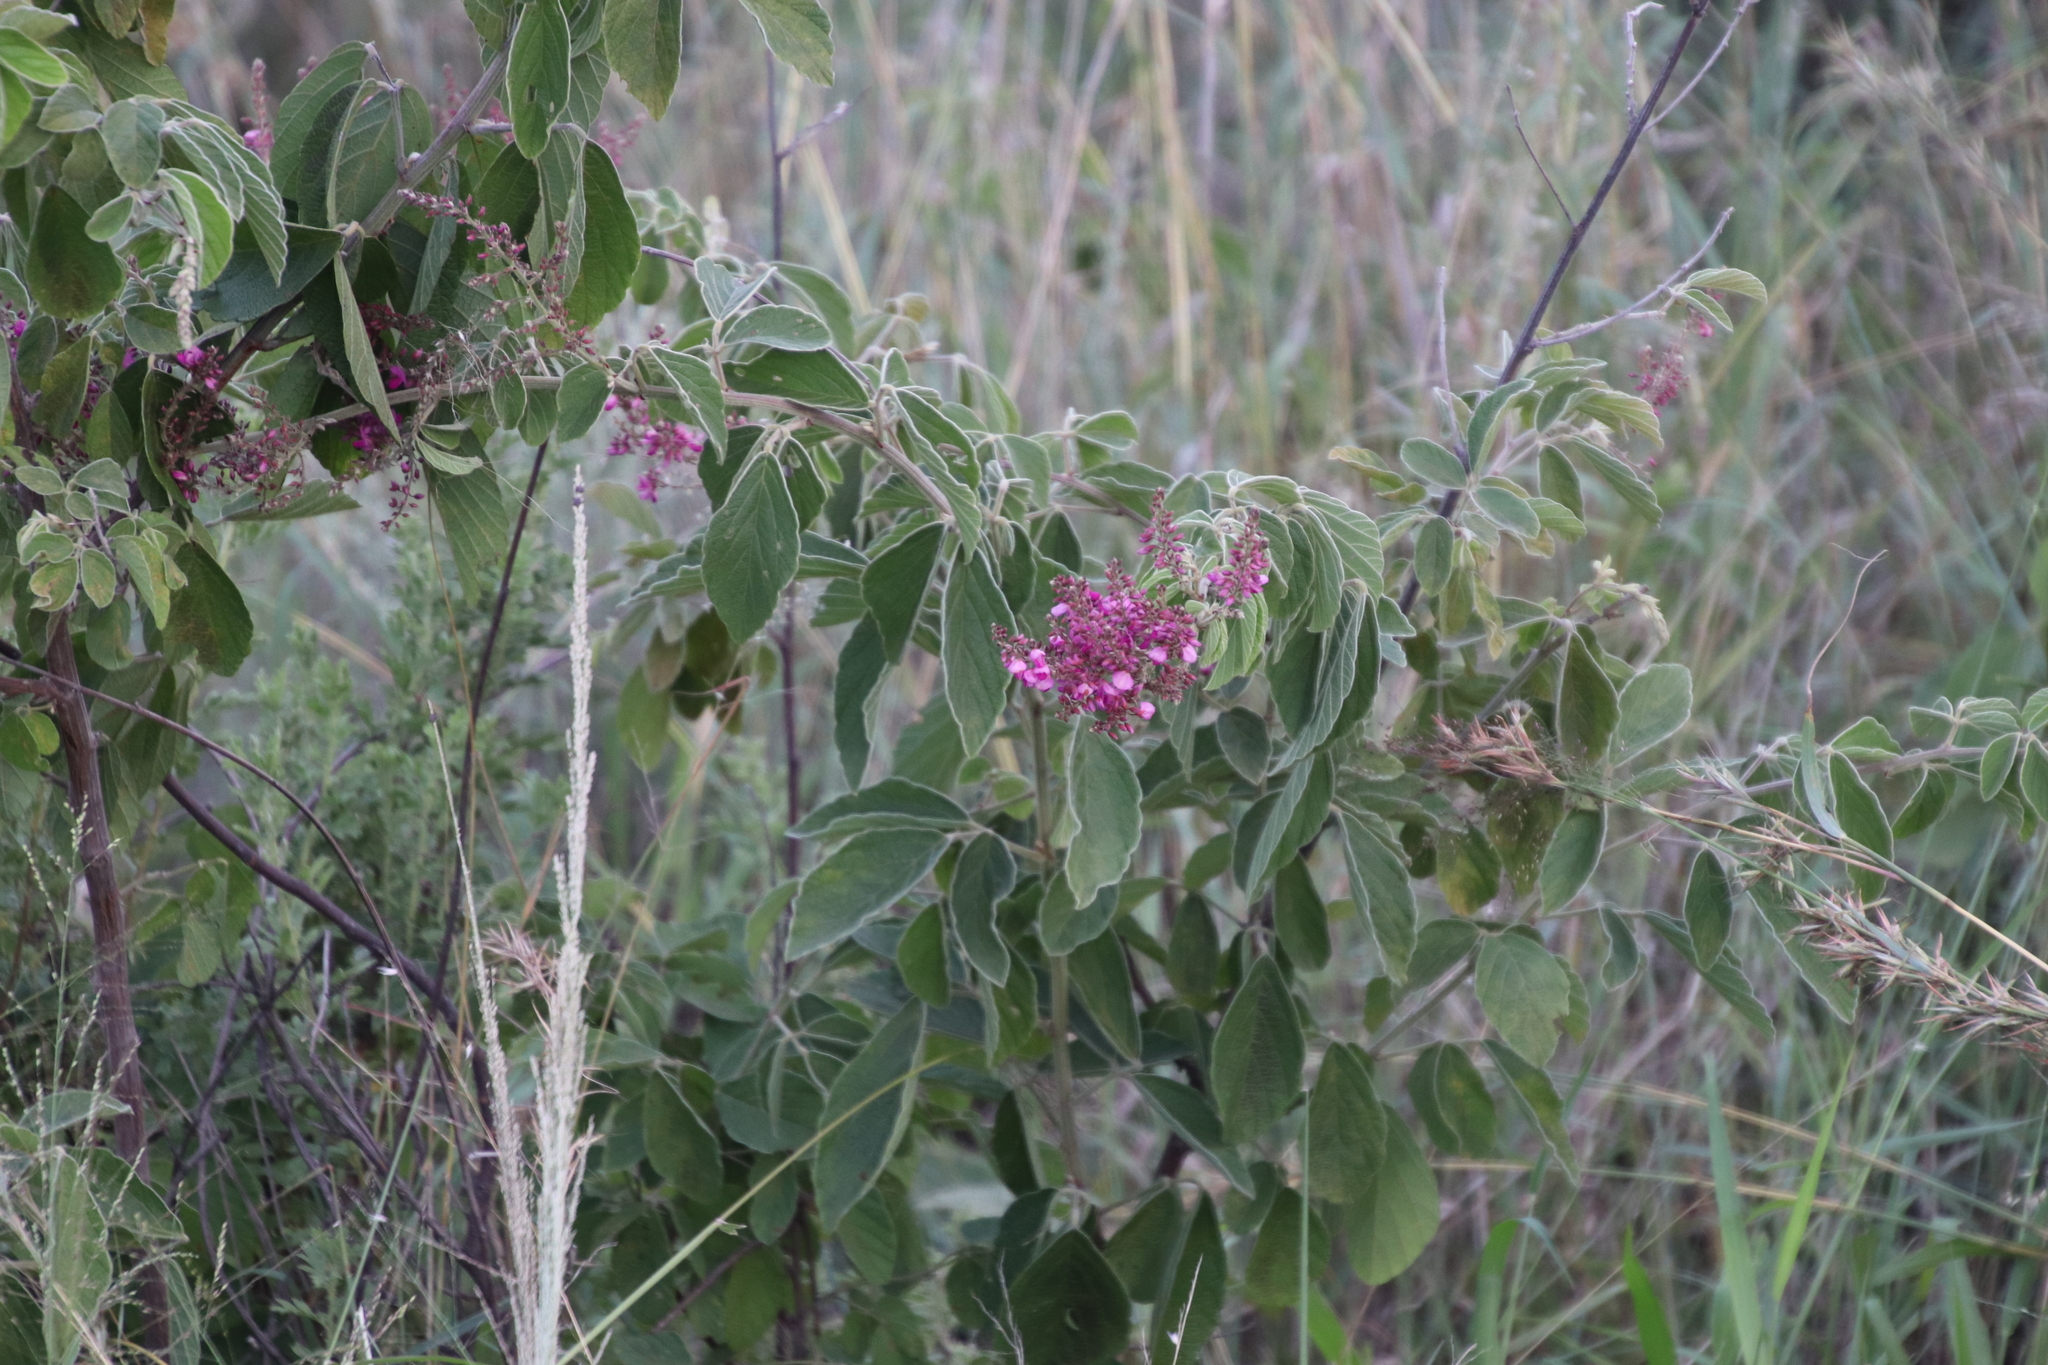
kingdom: Plantae
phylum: Tracheophyta
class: Magnoliopsida
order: Fabales
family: Fabaceae
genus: Pseudarthria
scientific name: Pseudarthria hookeri
